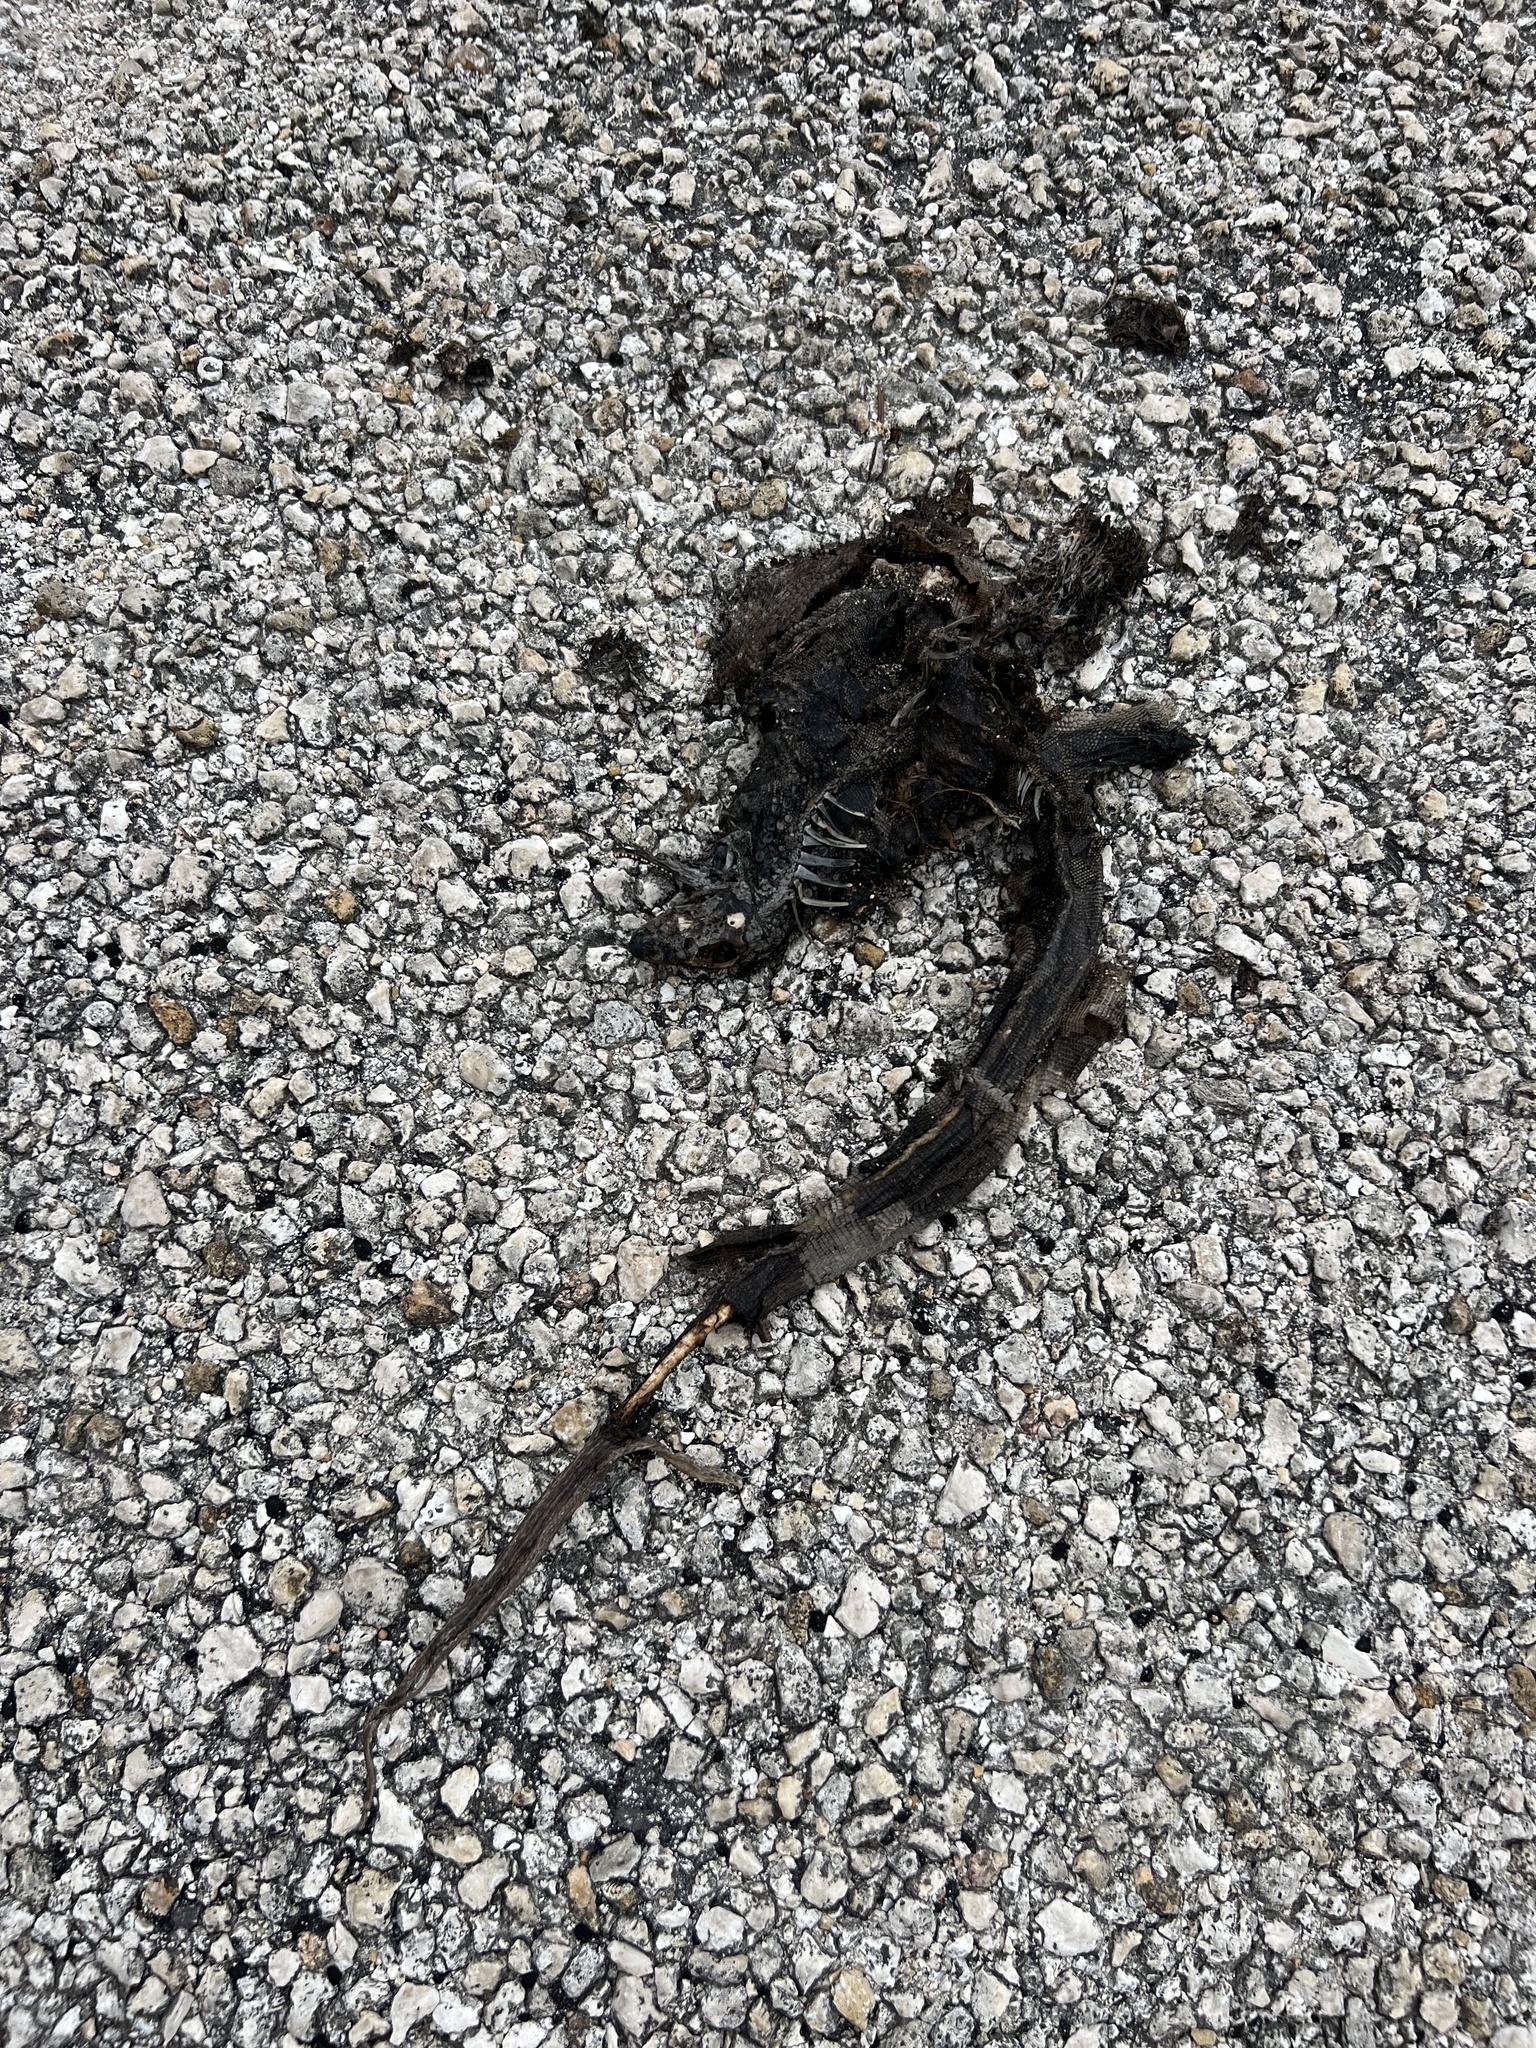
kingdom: Animalia
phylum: Chordata
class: Squamata
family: Iguanidae
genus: Cyclura
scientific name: Cyclura lewisi
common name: Grand cayman blue iguana
